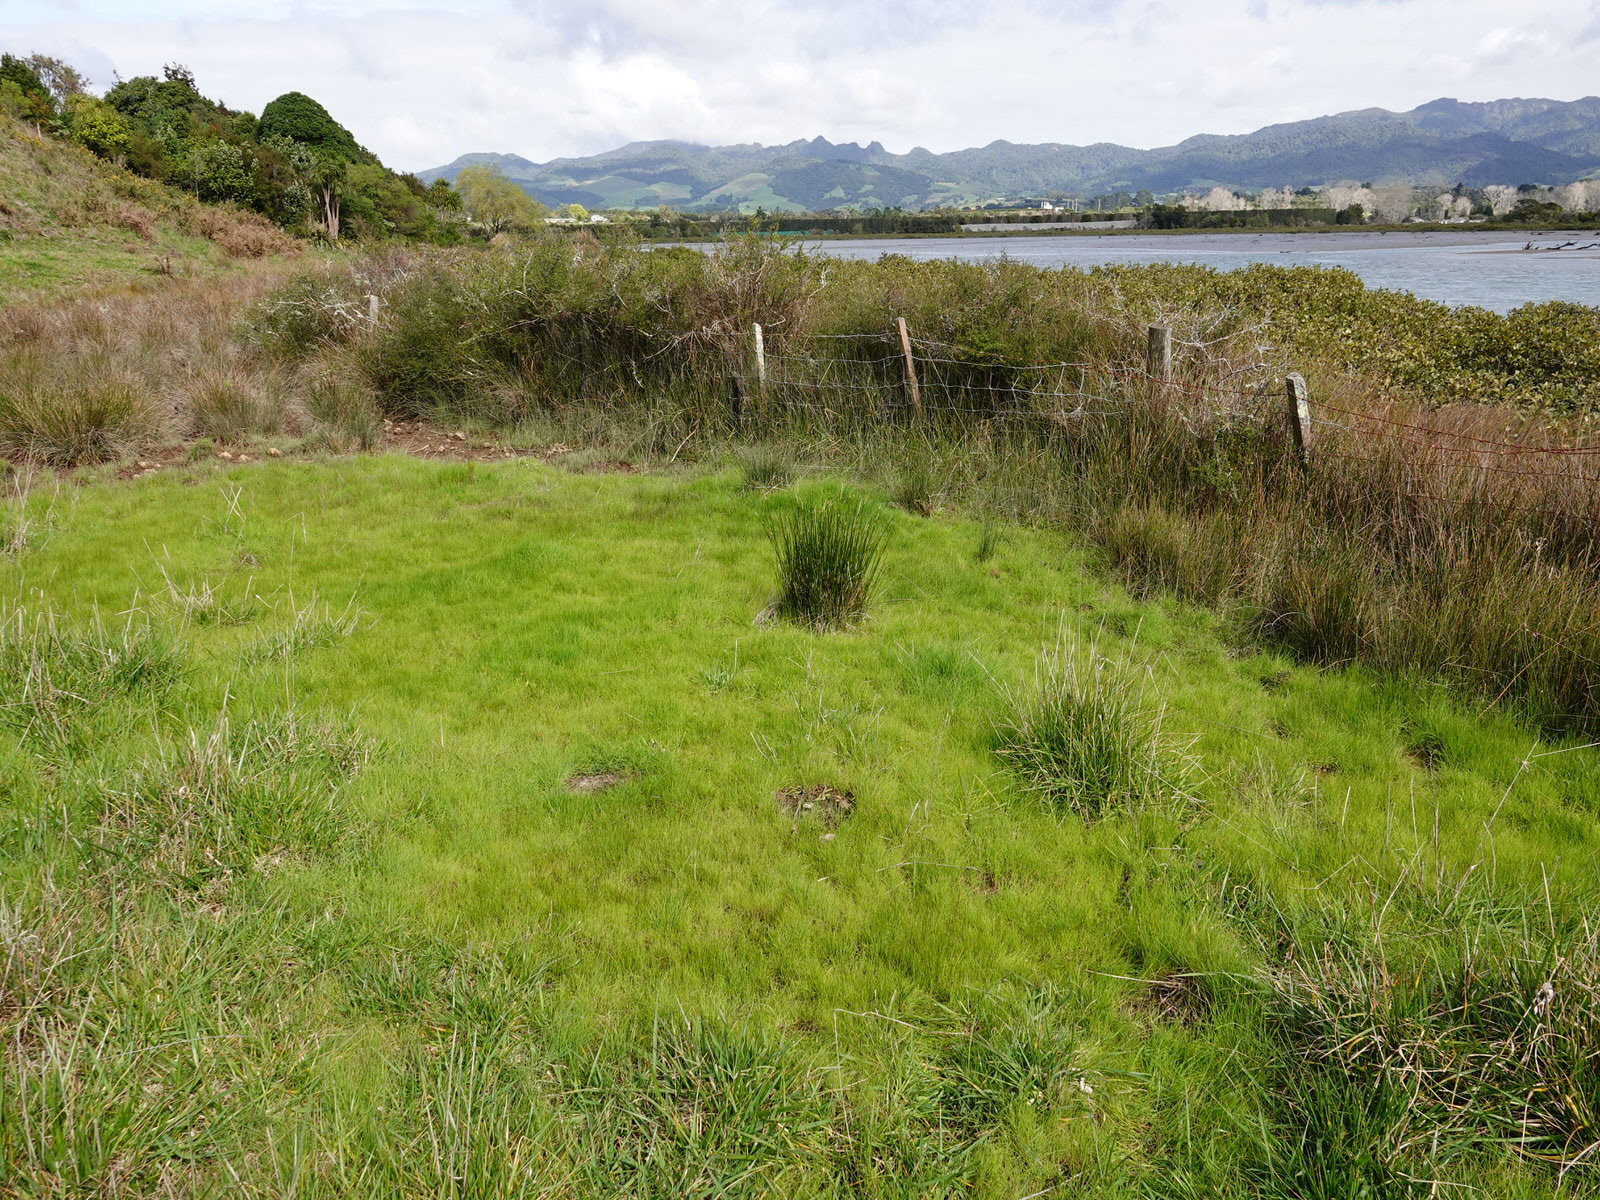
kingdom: Plantae
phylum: Tracheophyta
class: Magnoliopsida
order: Asterales
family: Asteraceae
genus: Cotula
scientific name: Cotula coronopifolia
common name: Buttonweed
